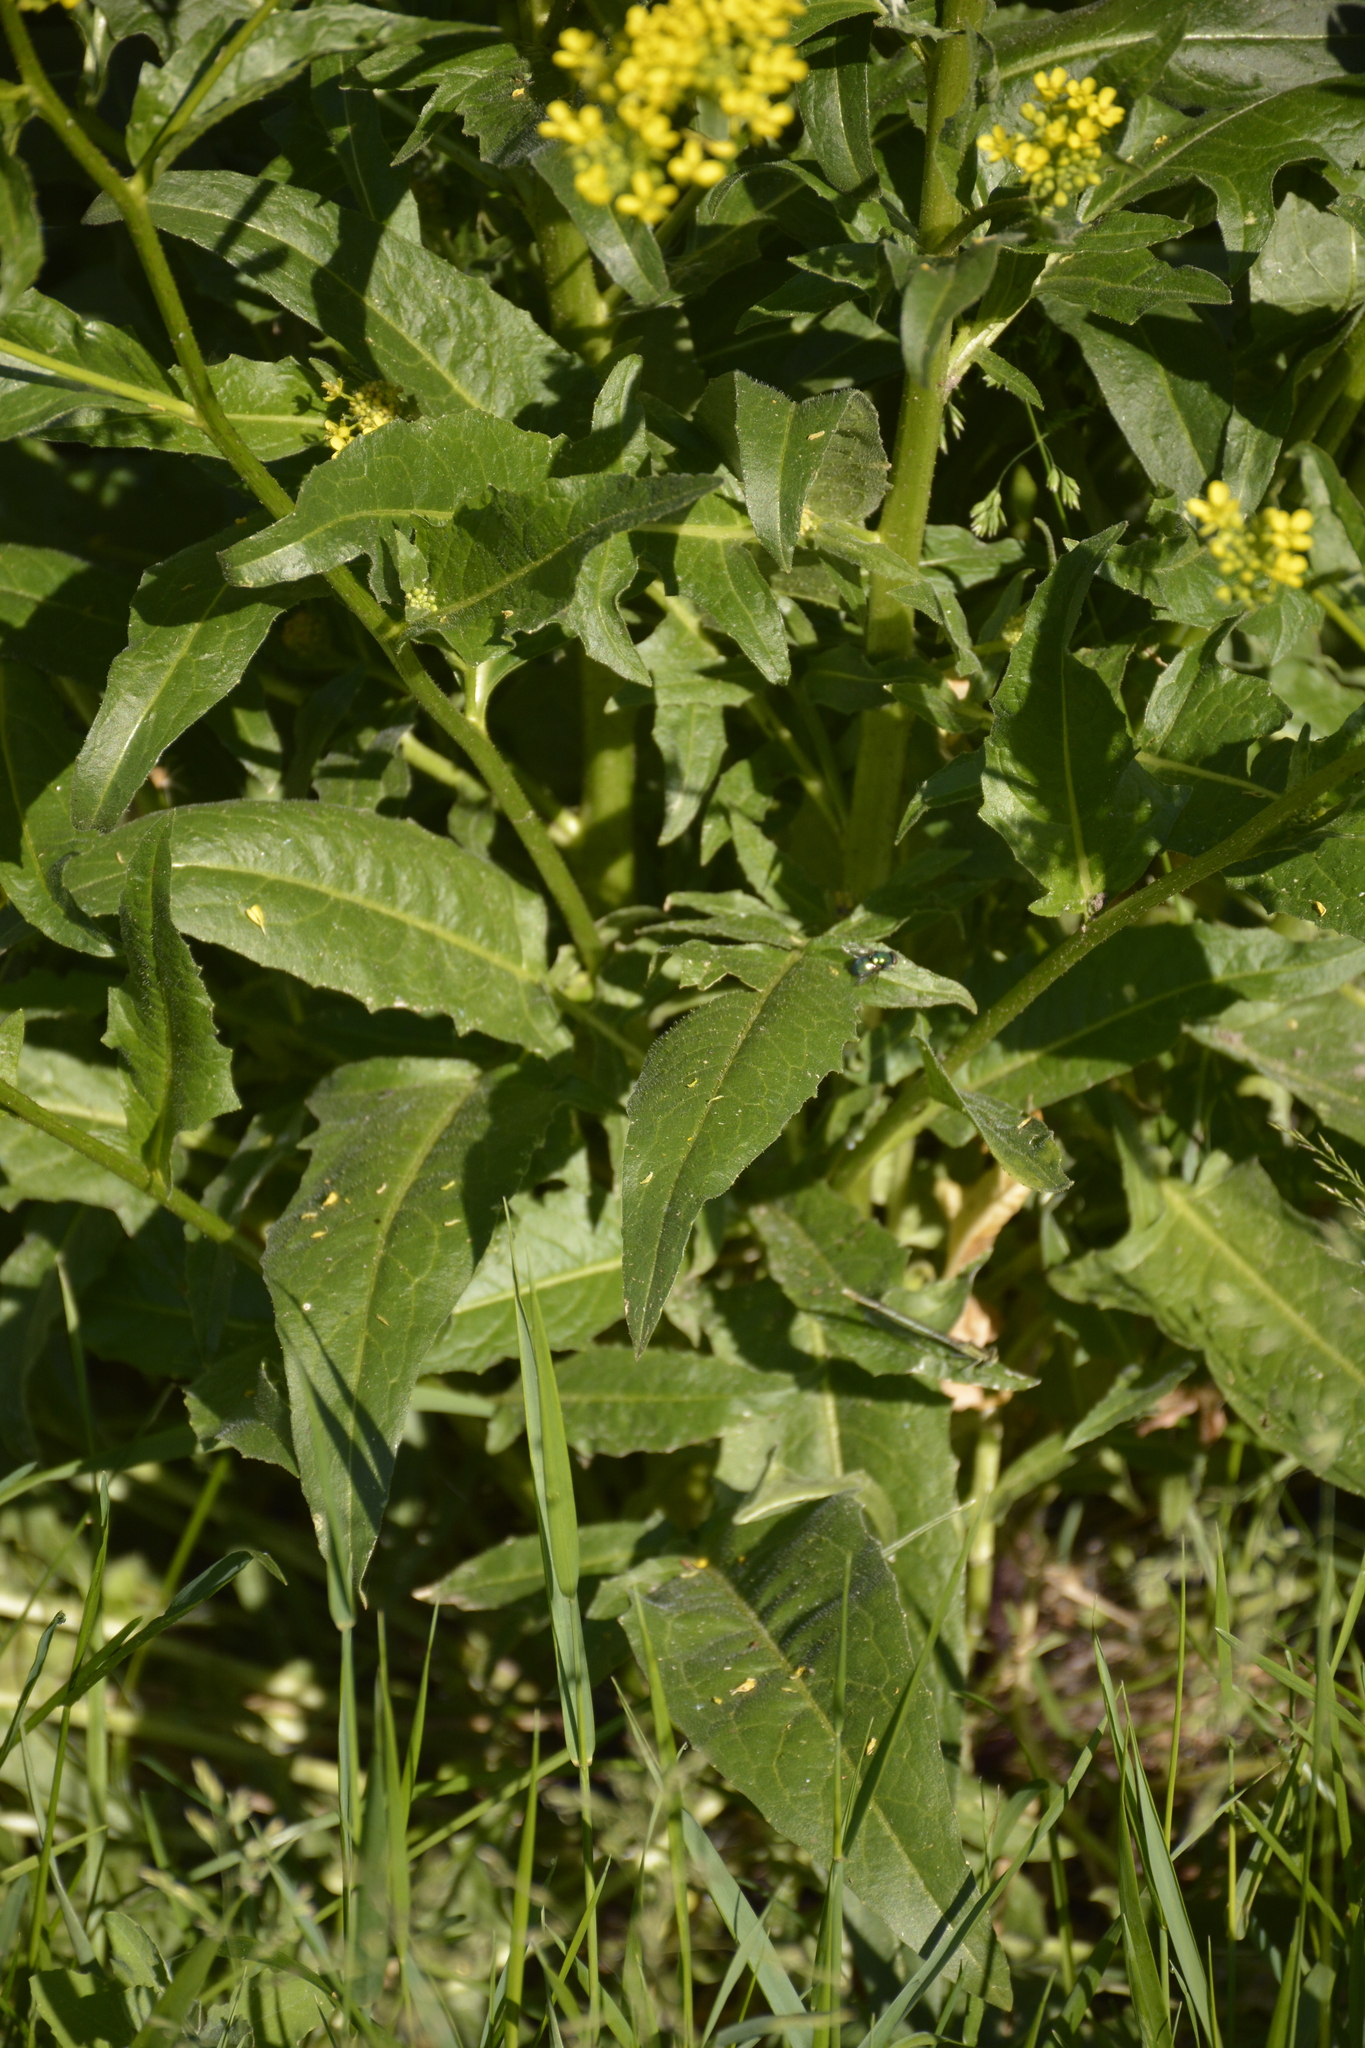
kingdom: Plantae
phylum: Tracheophyta
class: Magnoliopsida
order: Brassicales
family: Brassicaceae
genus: Bunias
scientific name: Bunias orientalis
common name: Warty-cabbage
